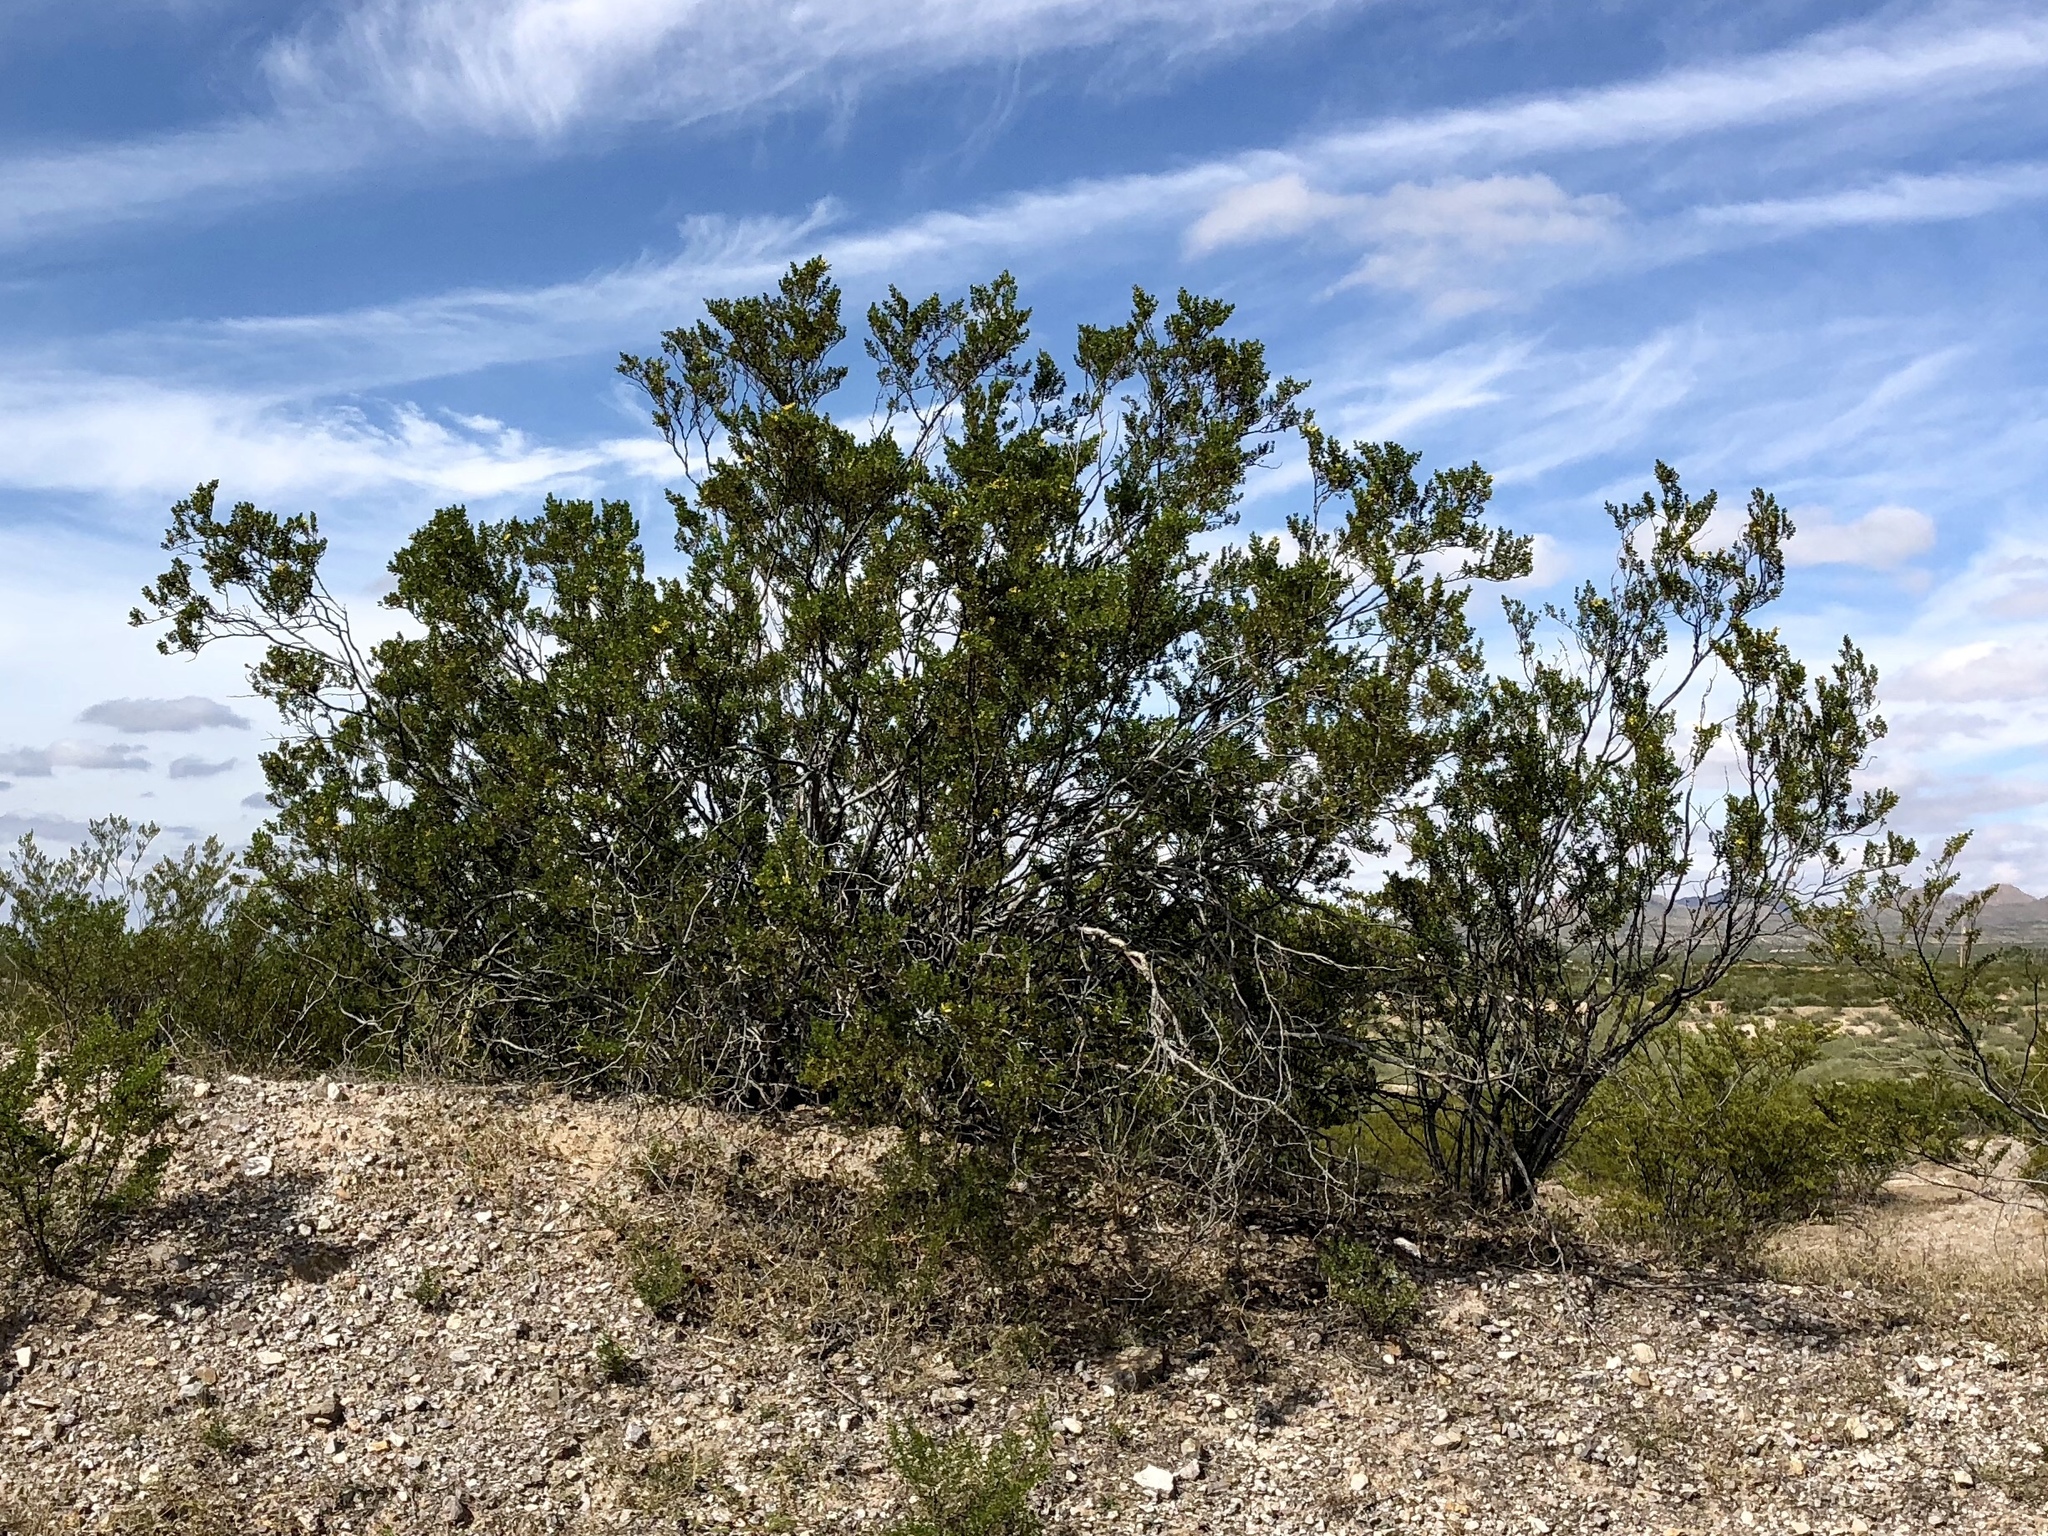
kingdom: Plantae
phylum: Tracheophyta
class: Magnoliopsida
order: Zygophyllales
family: Zygophyllaceae
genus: Larrea
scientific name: Larrea tridentata
